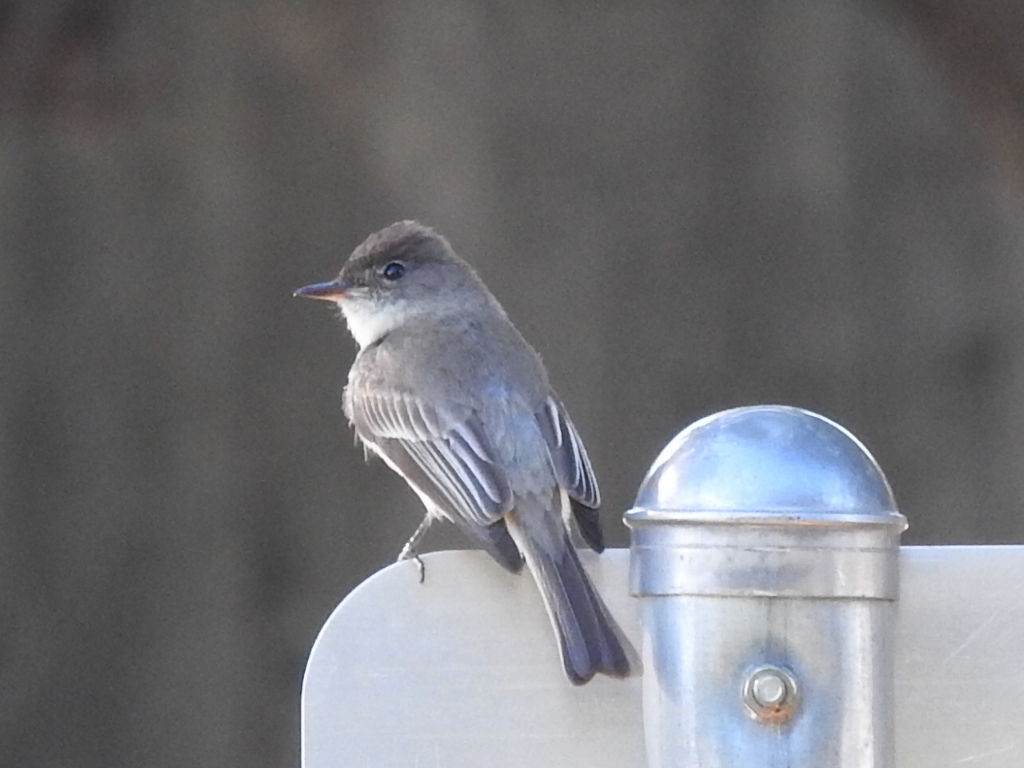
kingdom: Animalia
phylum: Chordata
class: Aves
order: Passeriformes
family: Tyrannidae
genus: Sayornis
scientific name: Sayornis phoebe
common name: Eastern phoebe
